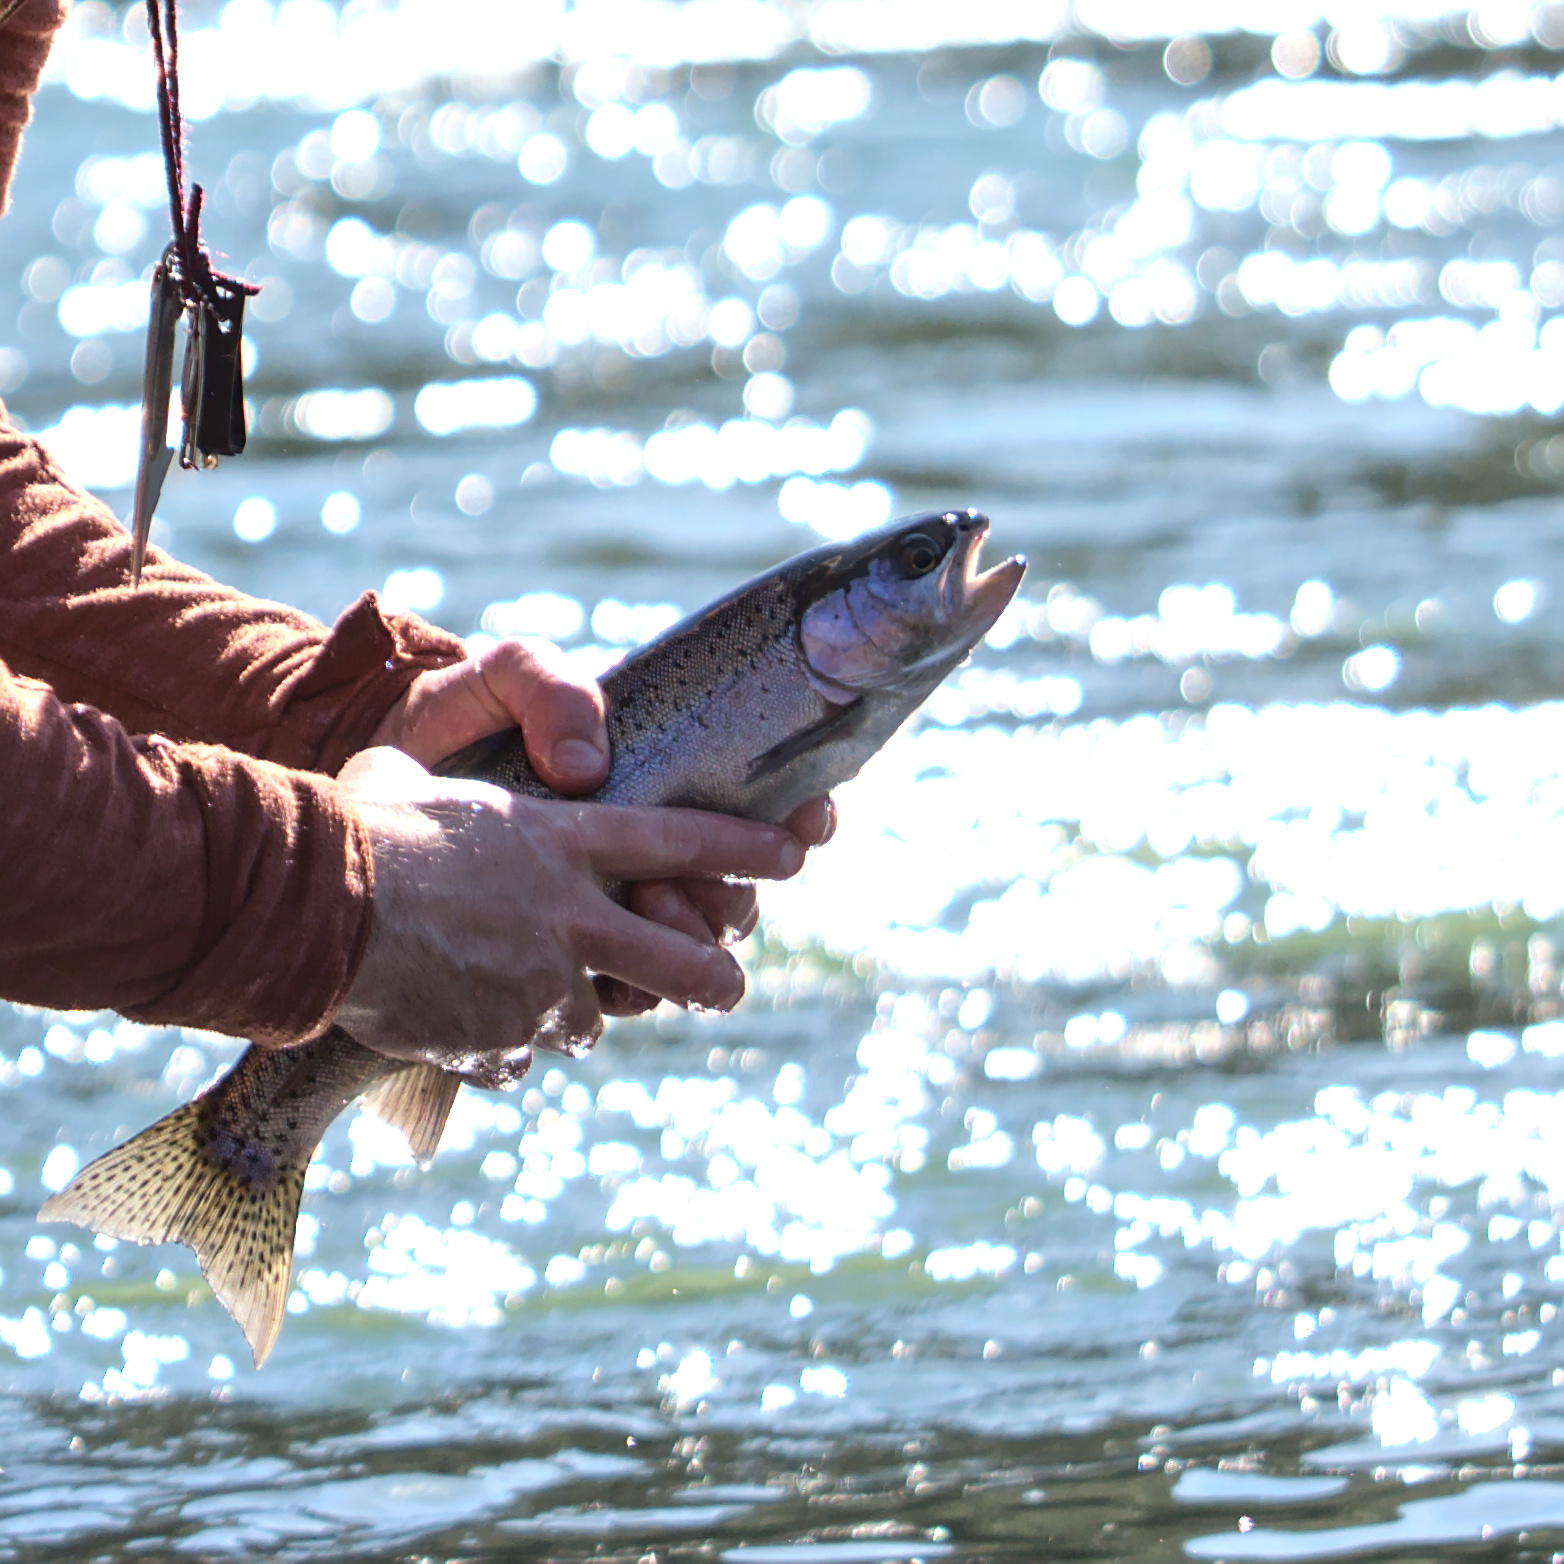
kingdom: Animalia
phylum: Chordata
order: Salmoniformes
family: Salmonidae
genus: Oncorhynchus
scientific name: Oncorhynchus mykiss
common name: Rainbow trout
